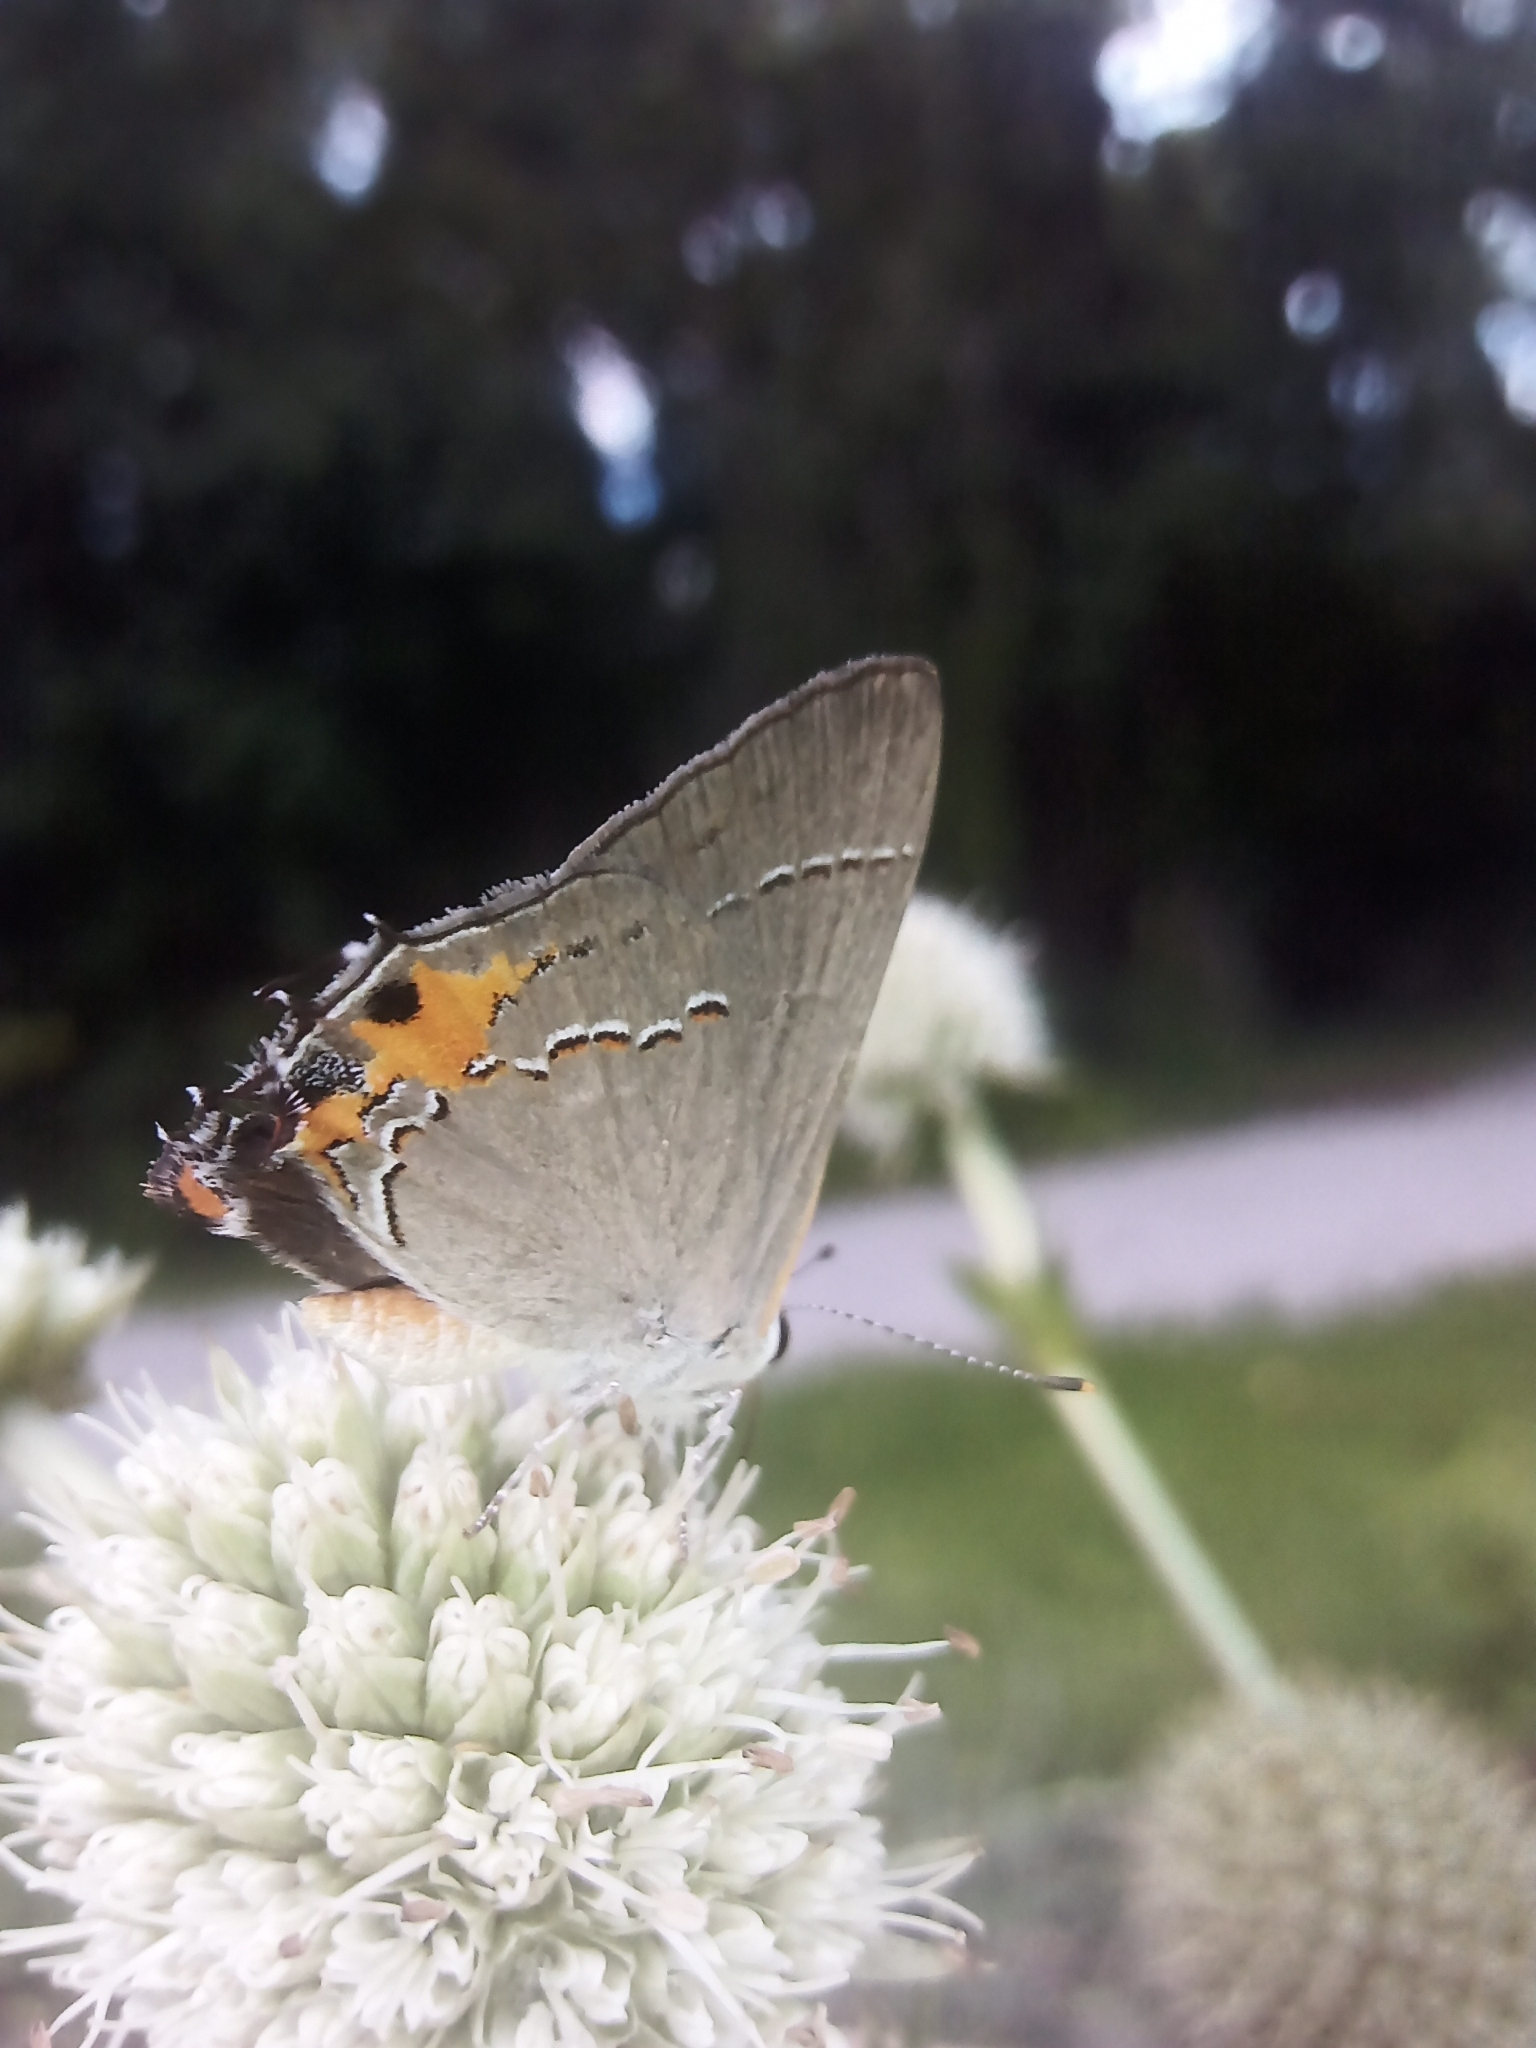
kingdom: Animalia
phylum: Arthropoda
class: Insecta
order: Lepidoptera
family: Lycaenidae
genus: Strymon
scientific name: Strymon melinus
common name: Gray hairstreak
